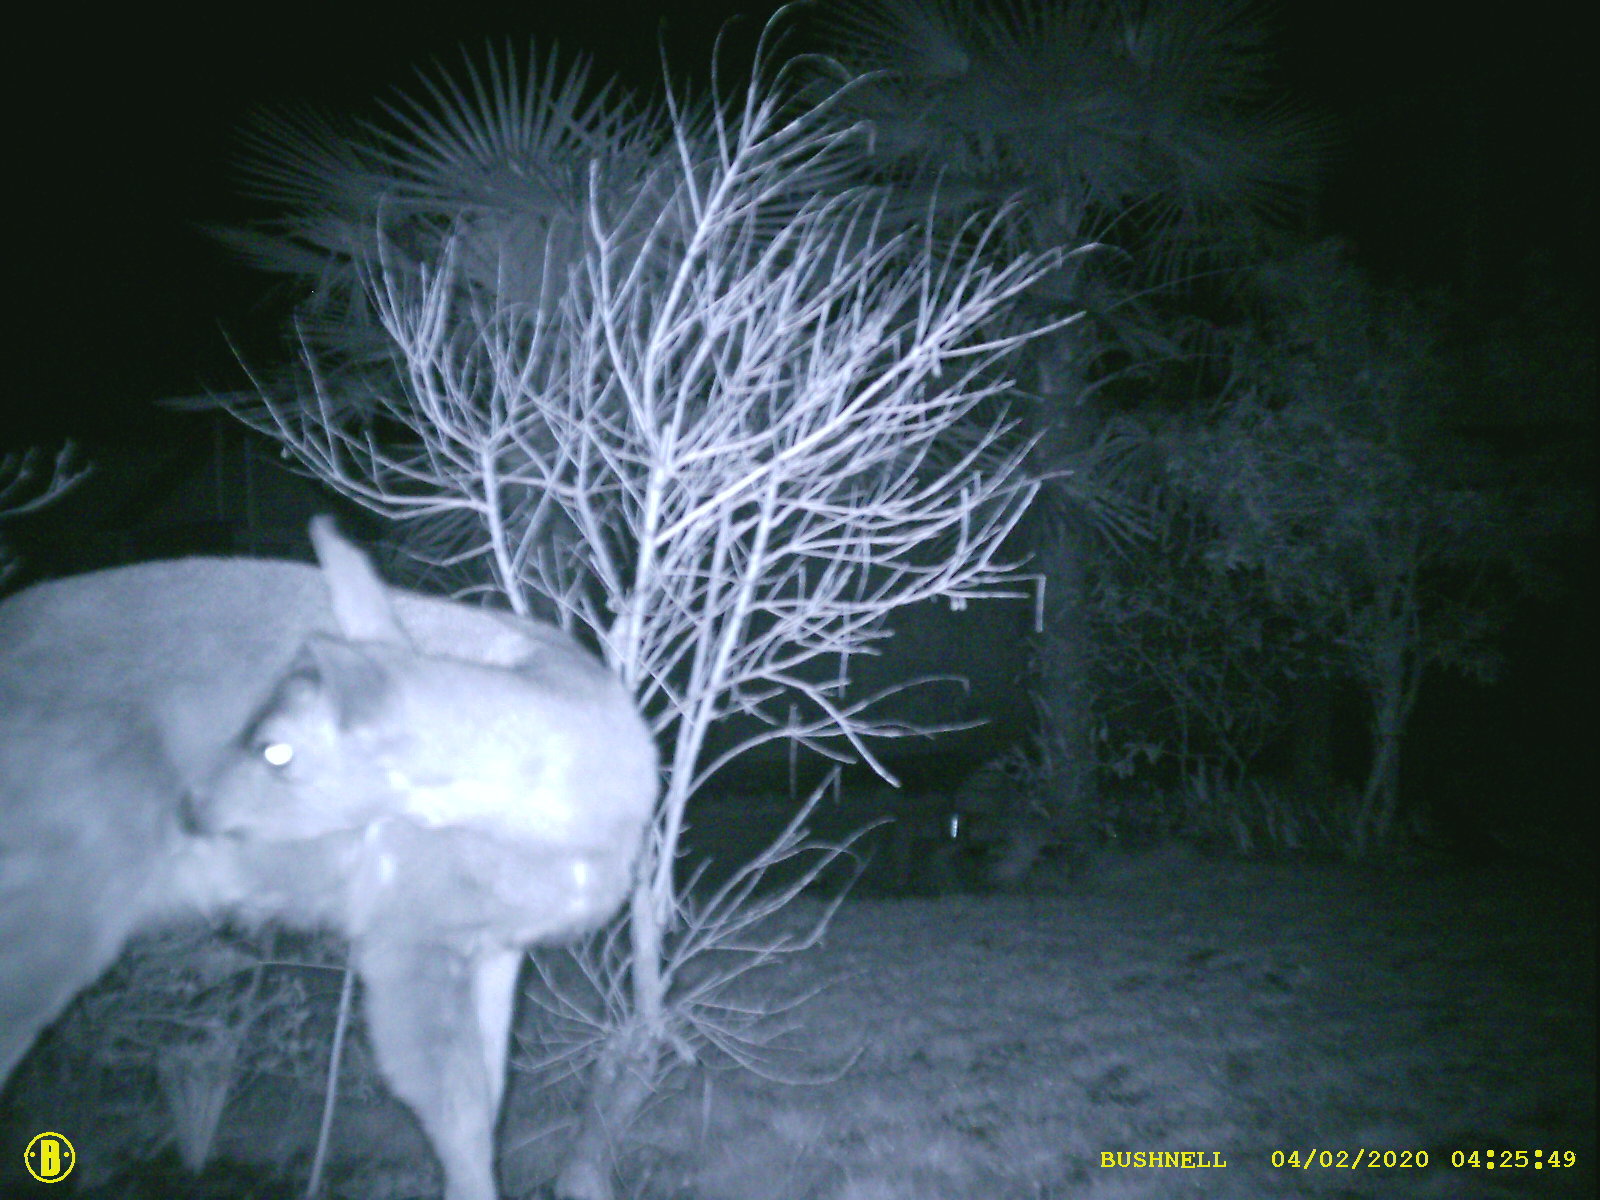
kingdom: Animalia
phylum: Chordata
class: Mammalia
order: Artiodactyla
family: Cervidae
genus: Odocoileus
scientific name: Odocoileus hemionus
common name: Mule deer
